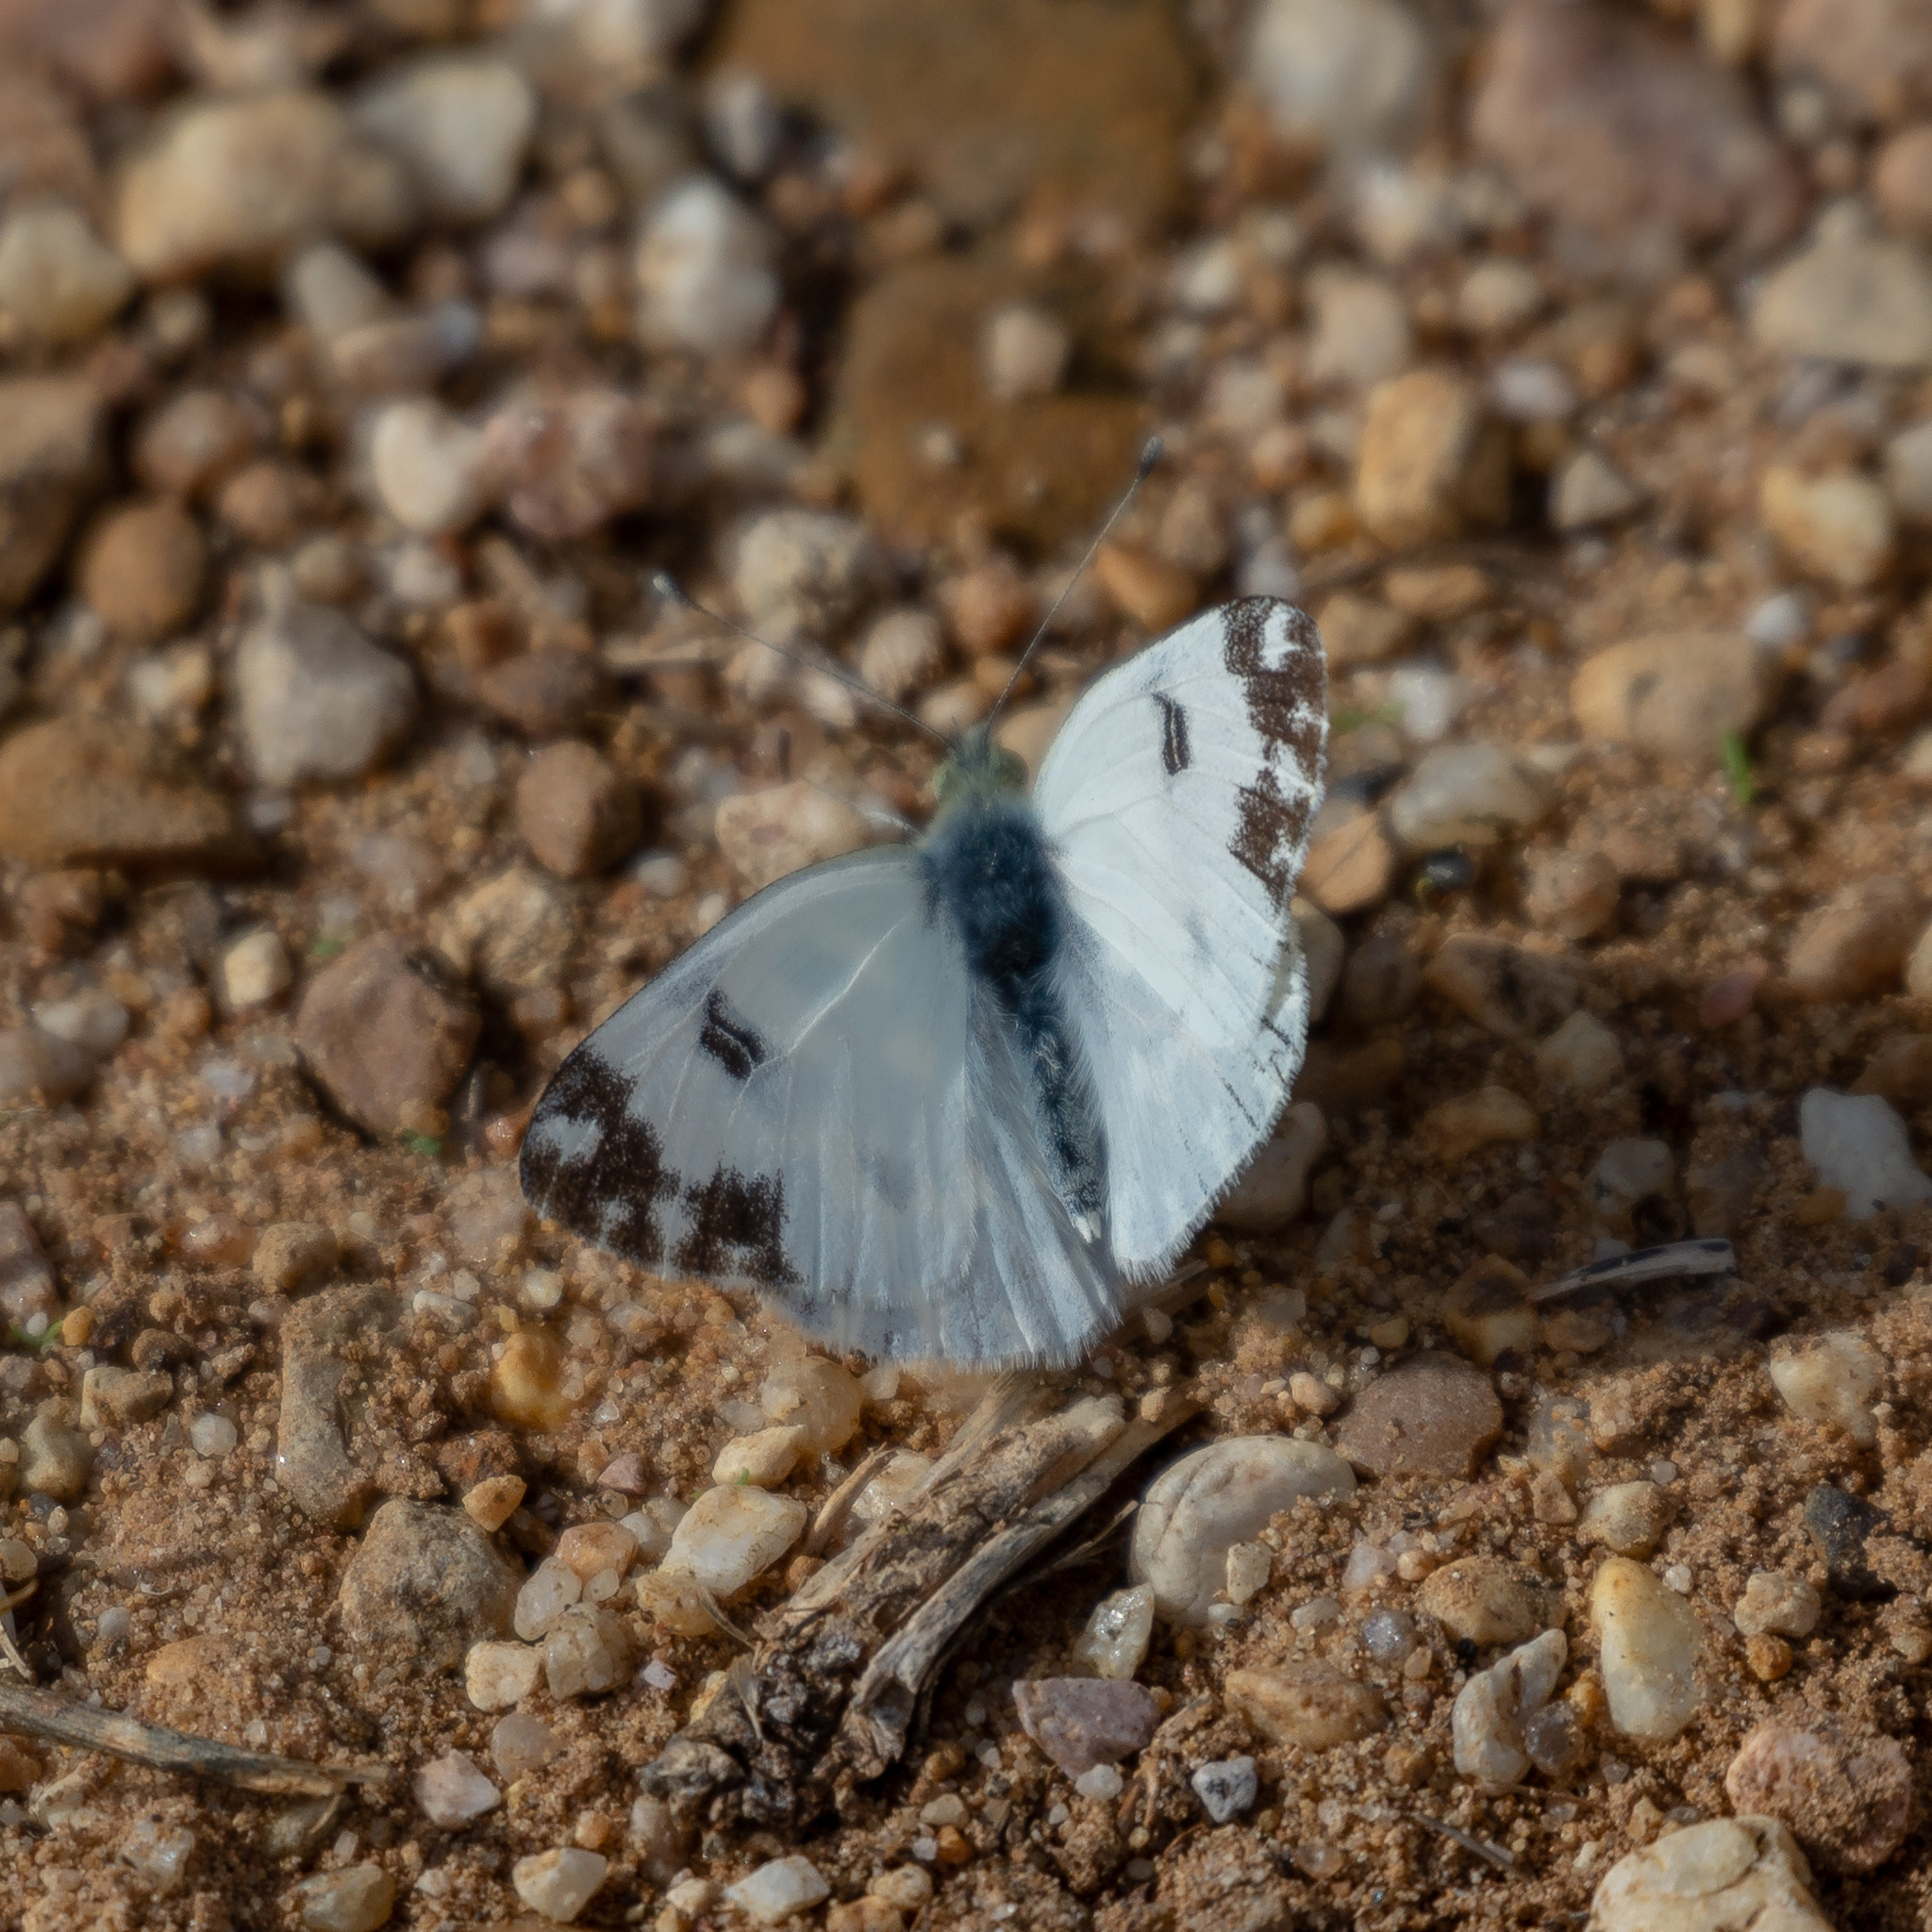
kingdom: Animalia
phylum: Arthropoda
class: Insecta
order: Lepidoptera
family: Pieridae
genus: Pontia
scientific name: Pontia daplidice
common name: Bath white
